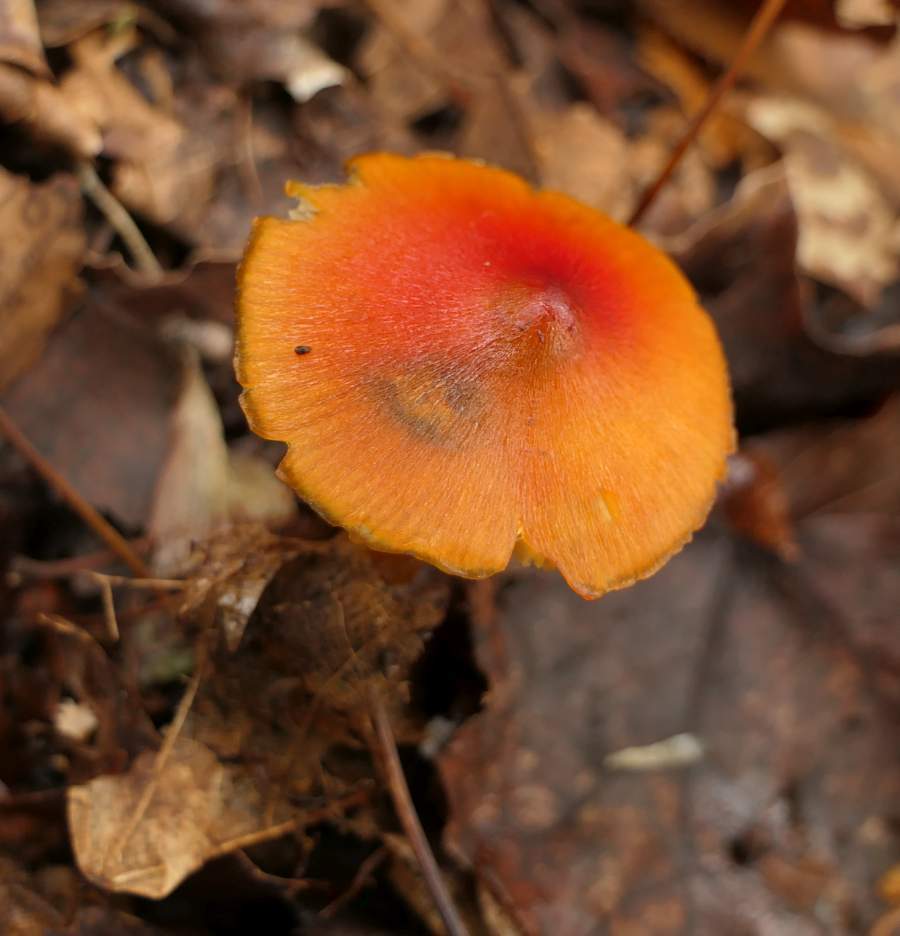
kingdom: Fungi
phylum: Basidiomycota
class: Agaricomycetes
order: Agaricales
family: Hygrophoraceae
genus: Hygrocybe
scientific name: Hygrocybe conica
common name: Blackening wax-cap
